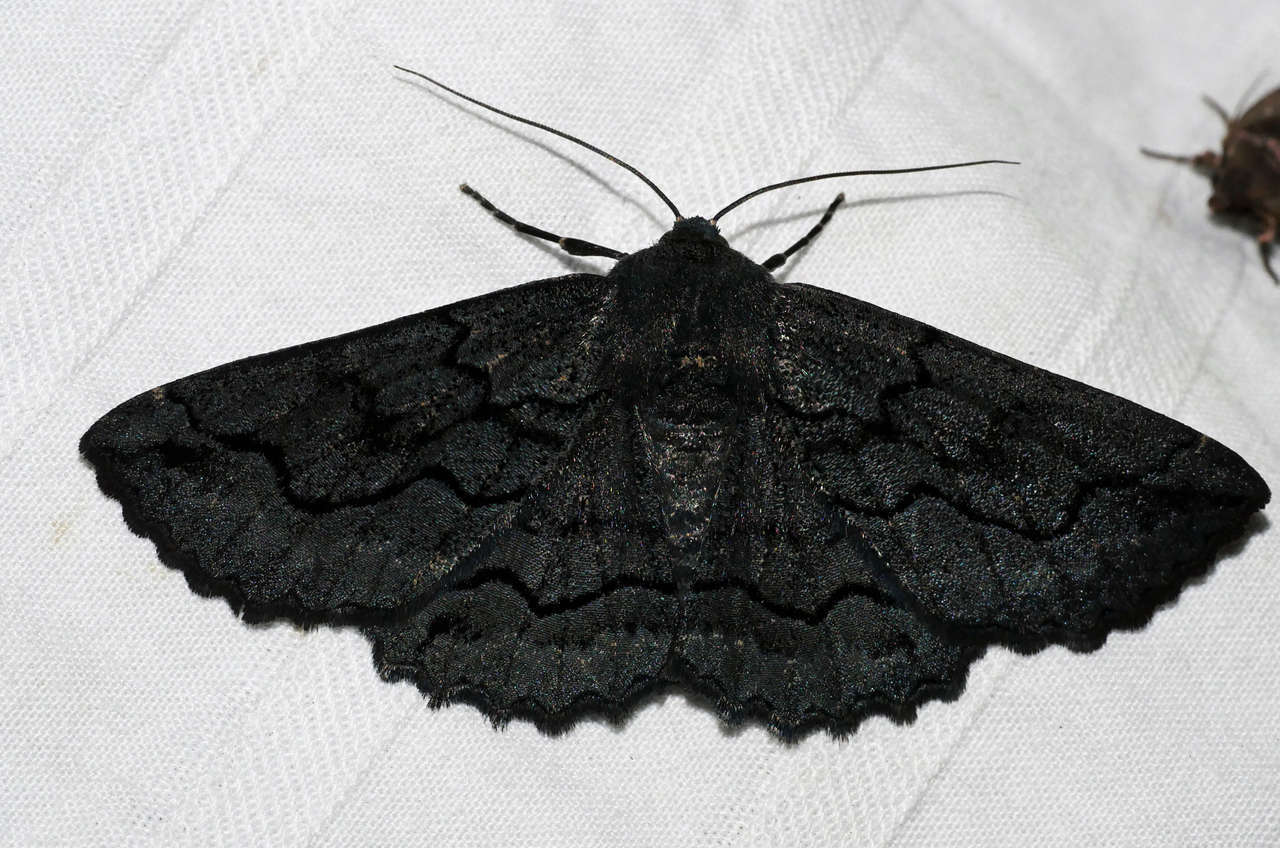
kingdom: Animalia
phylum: Arthropoda
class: Insecta
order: Lepidoptera
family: Geometridae
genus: Melanodes
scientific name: Melanodes anthracitaria
